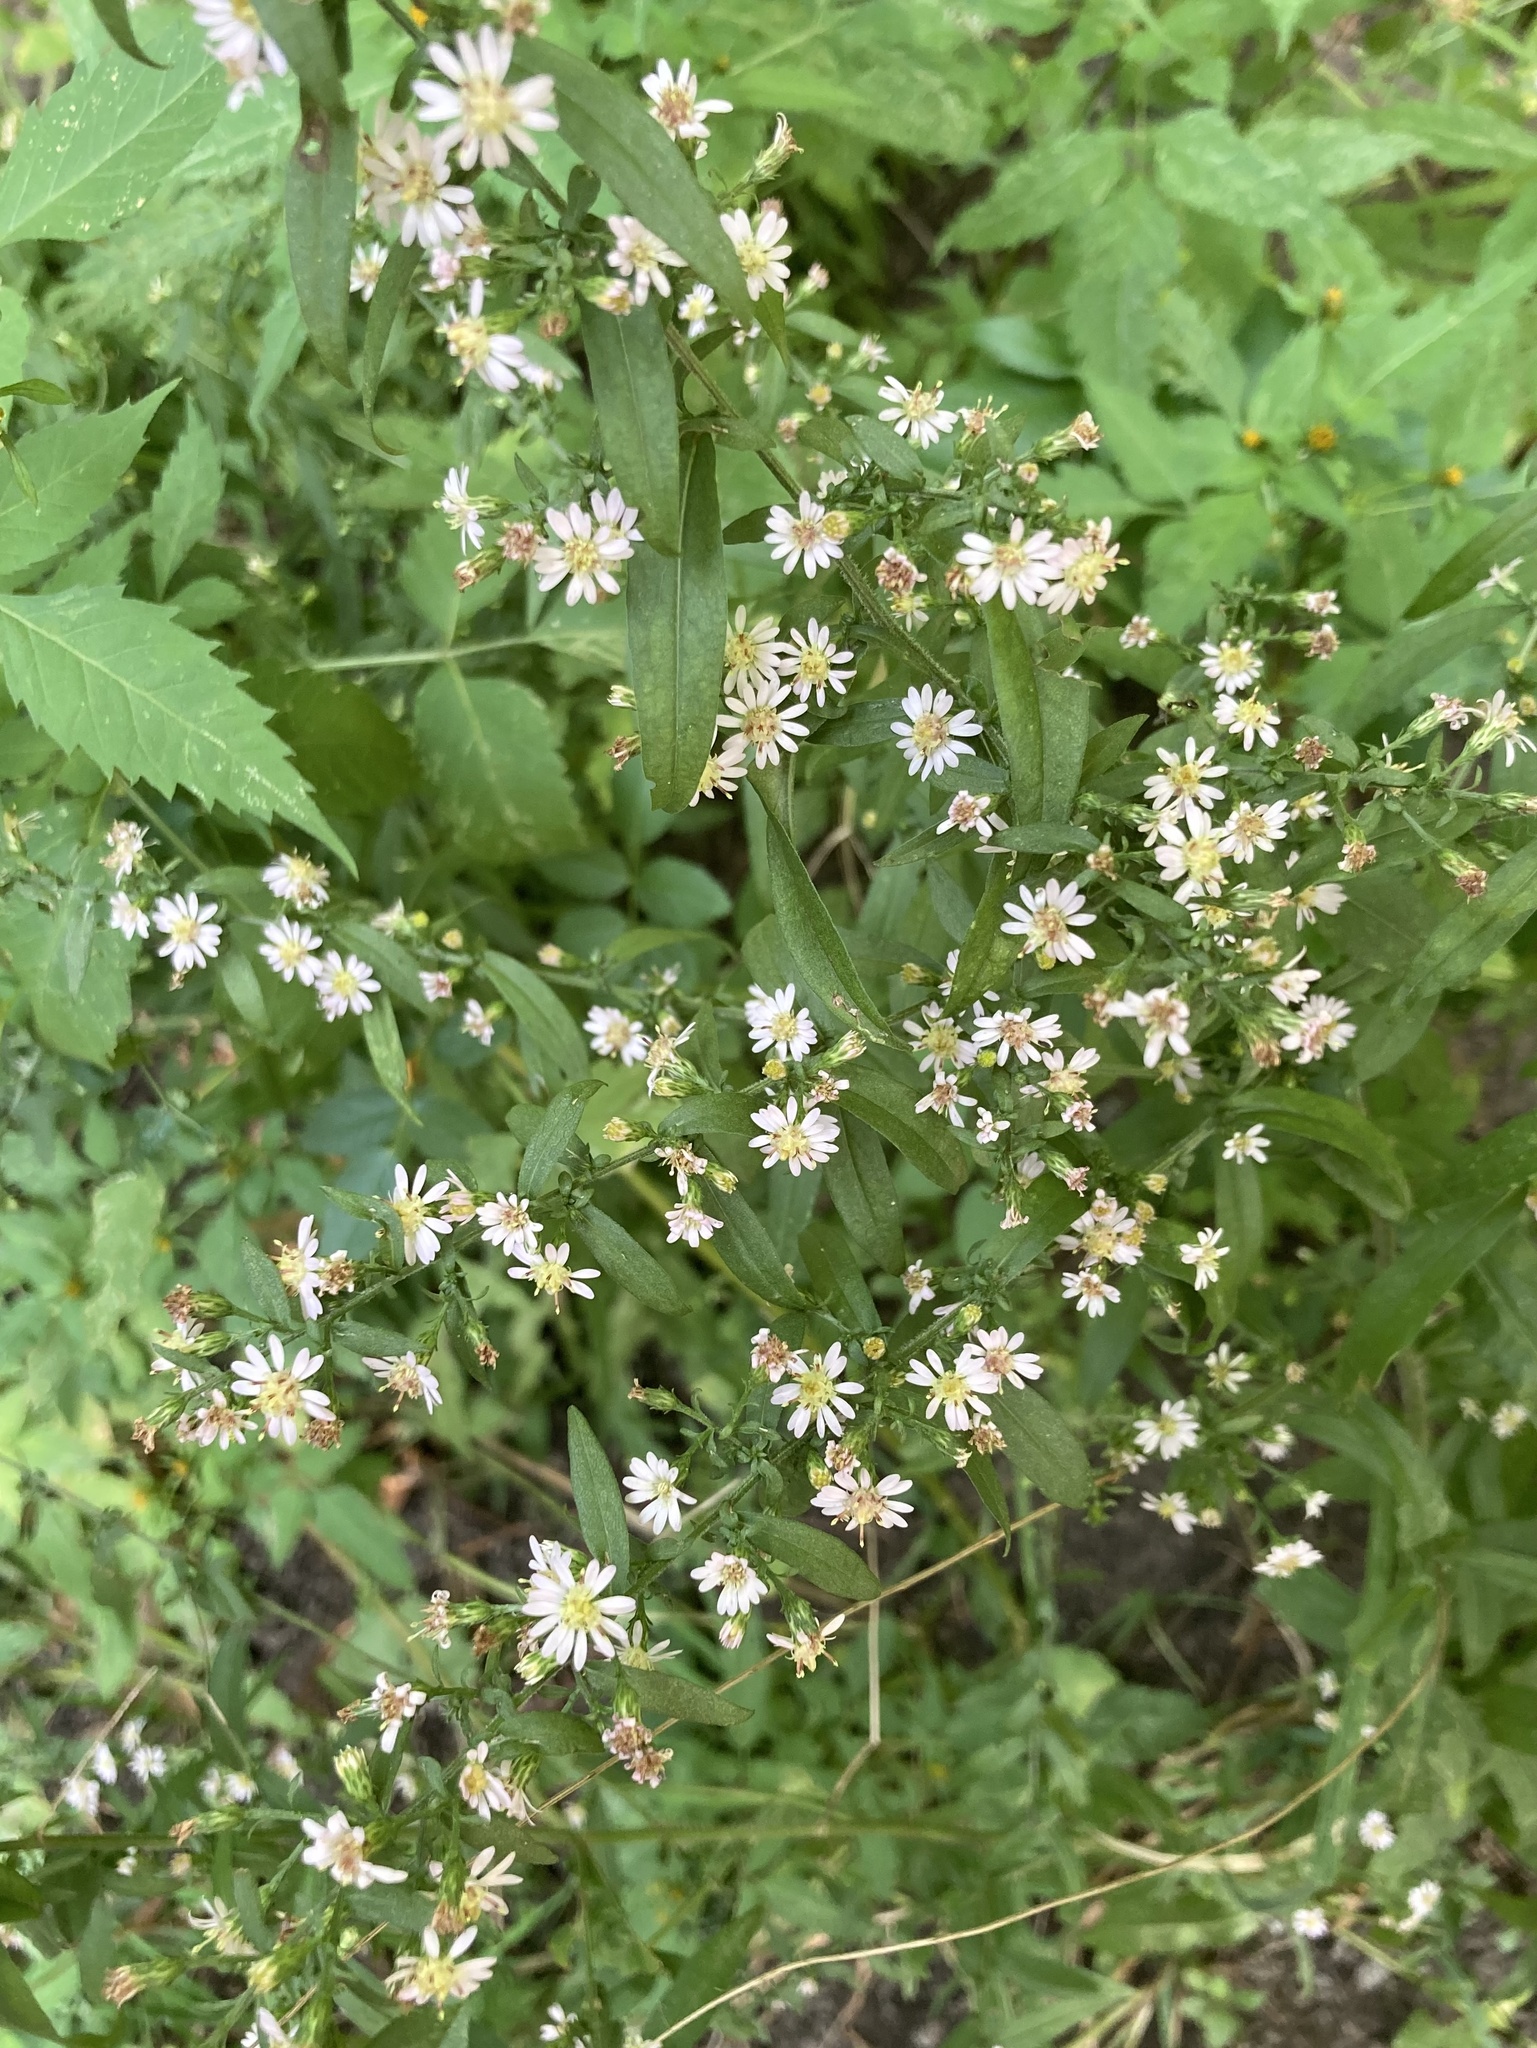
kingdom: Plantae
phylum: Tracheophyta
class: Magnoliopsida
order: Asterales
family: Asteraceae
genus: Symphyotrichum
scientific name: Symphyotrichum lateriflorum
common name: Calico aster
